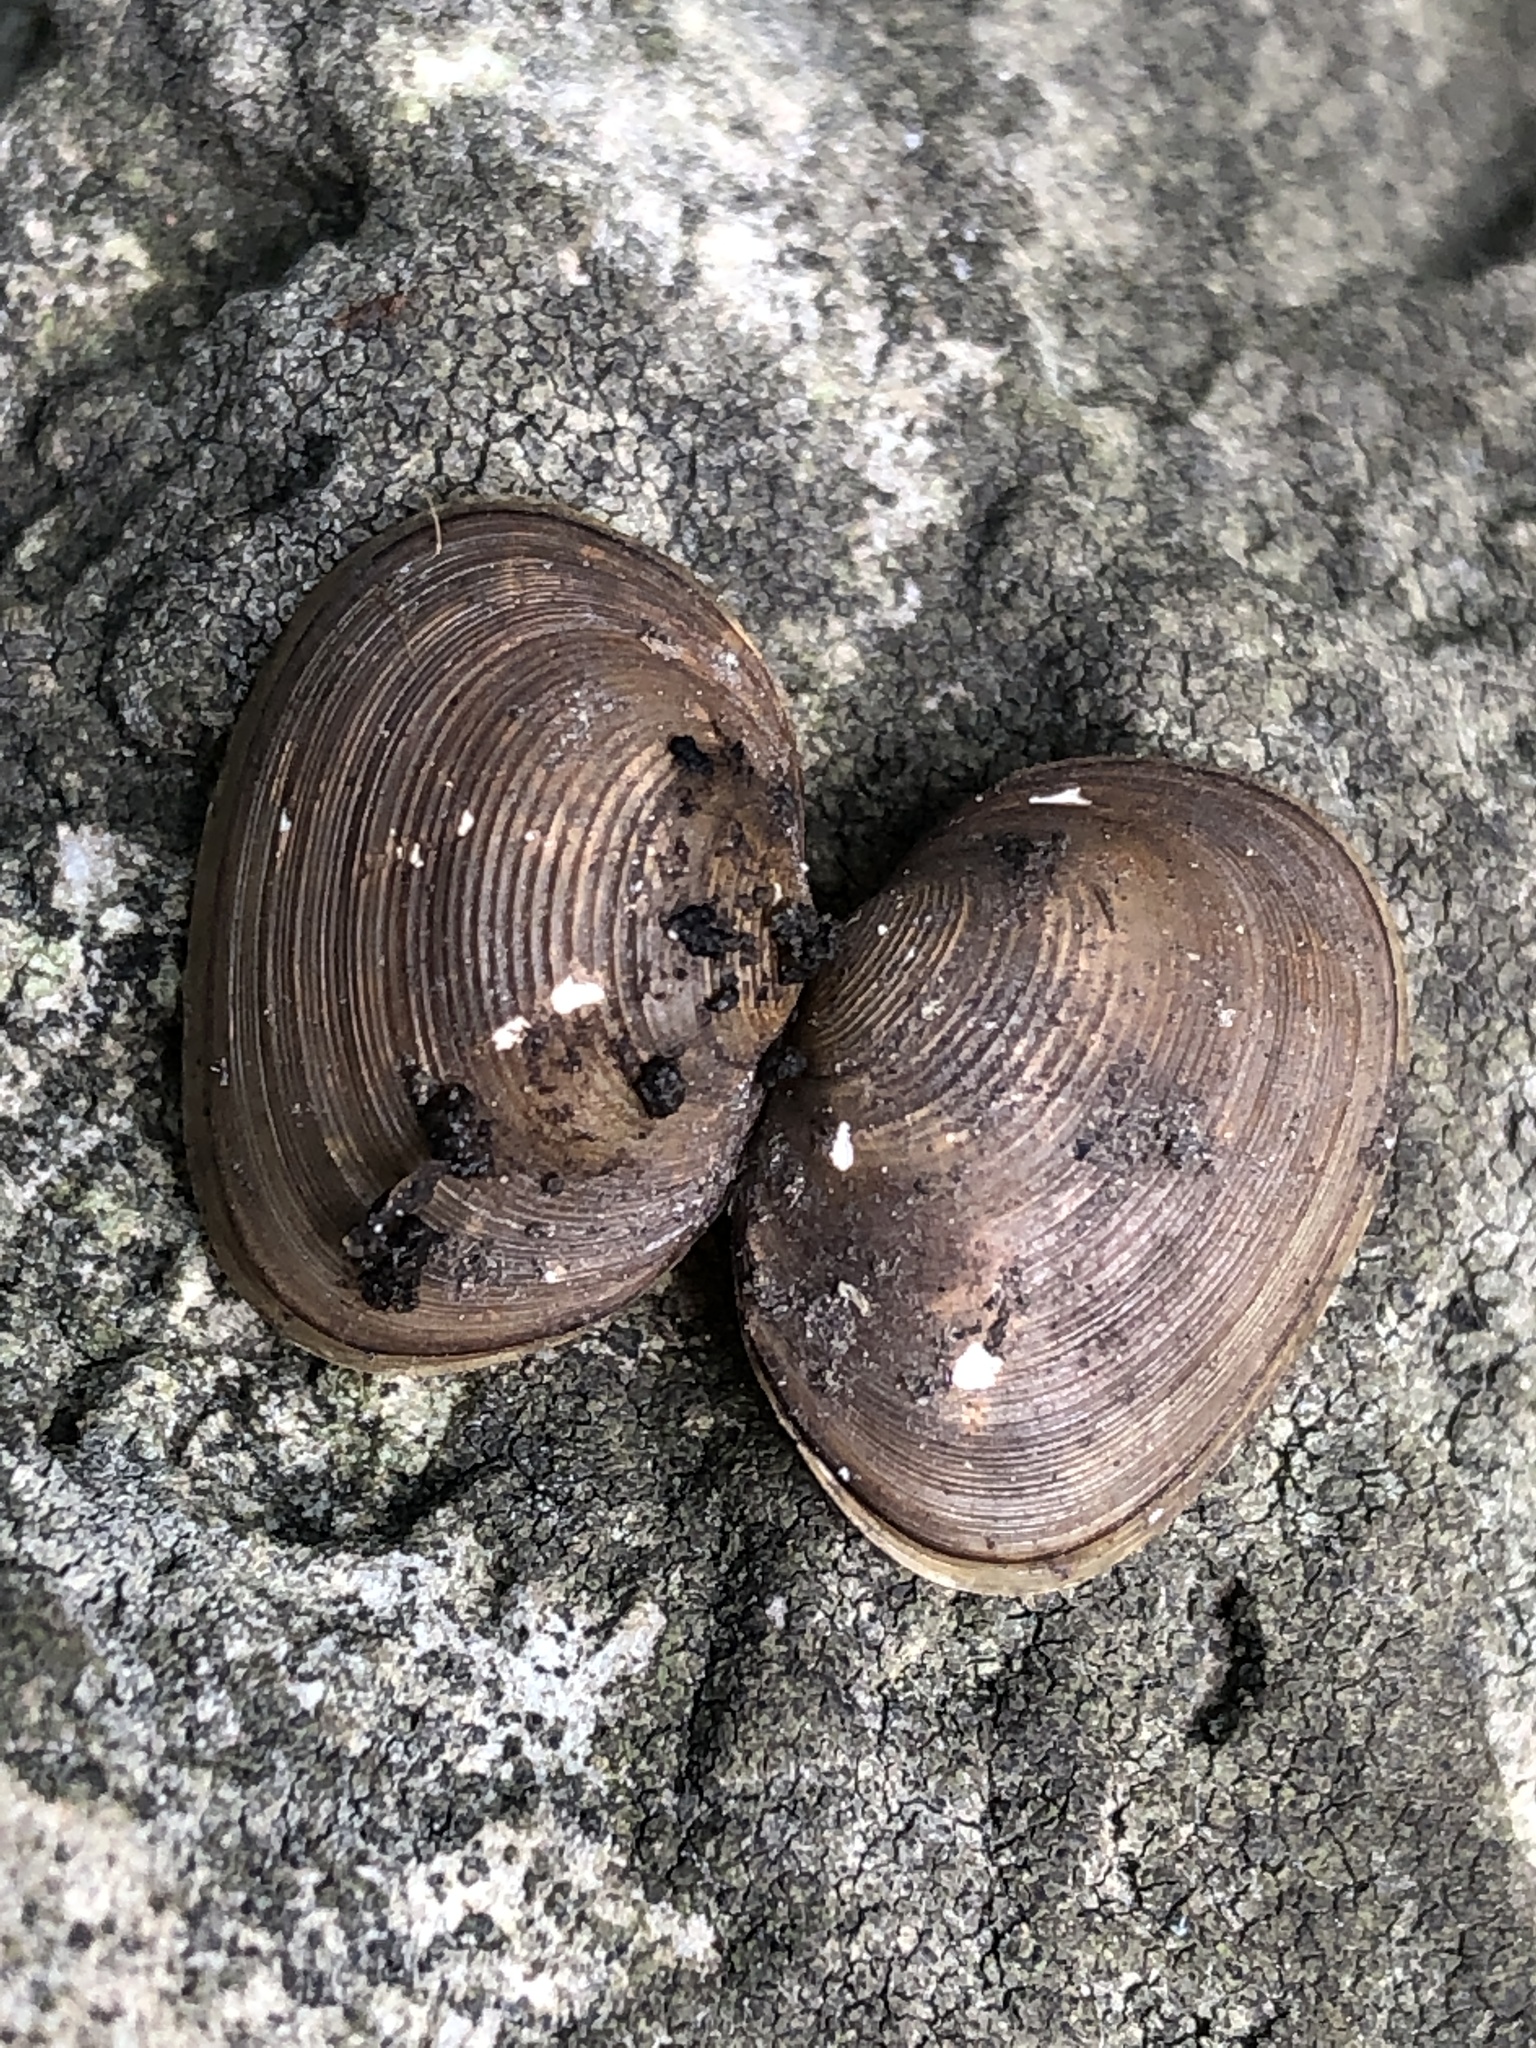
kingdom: Animalia
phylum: Mollusca
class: Bivalvia
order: Sphaeriida
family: Sphaeriidae
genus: Sphaerium
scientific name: Sphaerium simile
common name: Grooved fingernailclam
